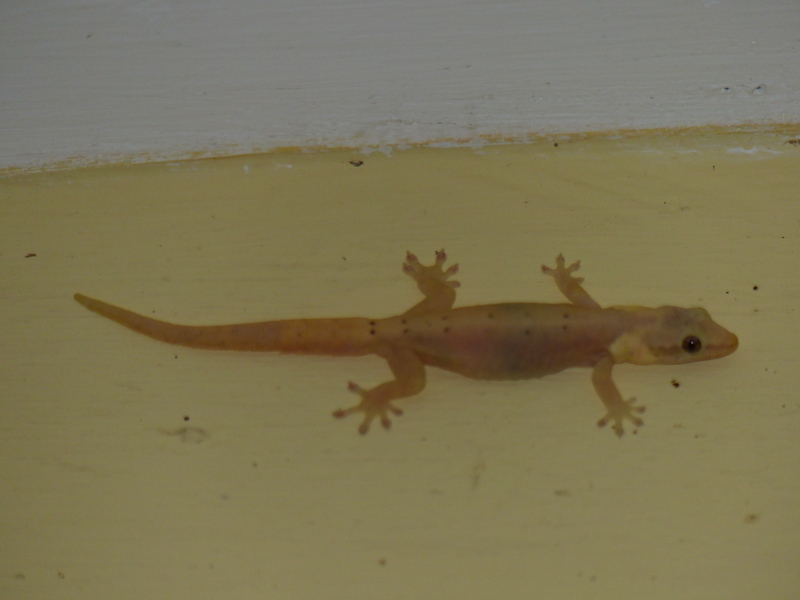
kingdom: Animalia
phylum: Chordata
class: Squamata
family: Gekkonidae
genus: Lepidodactylus
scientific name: Lepidodactylus lugubris
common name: Mourning gecko
